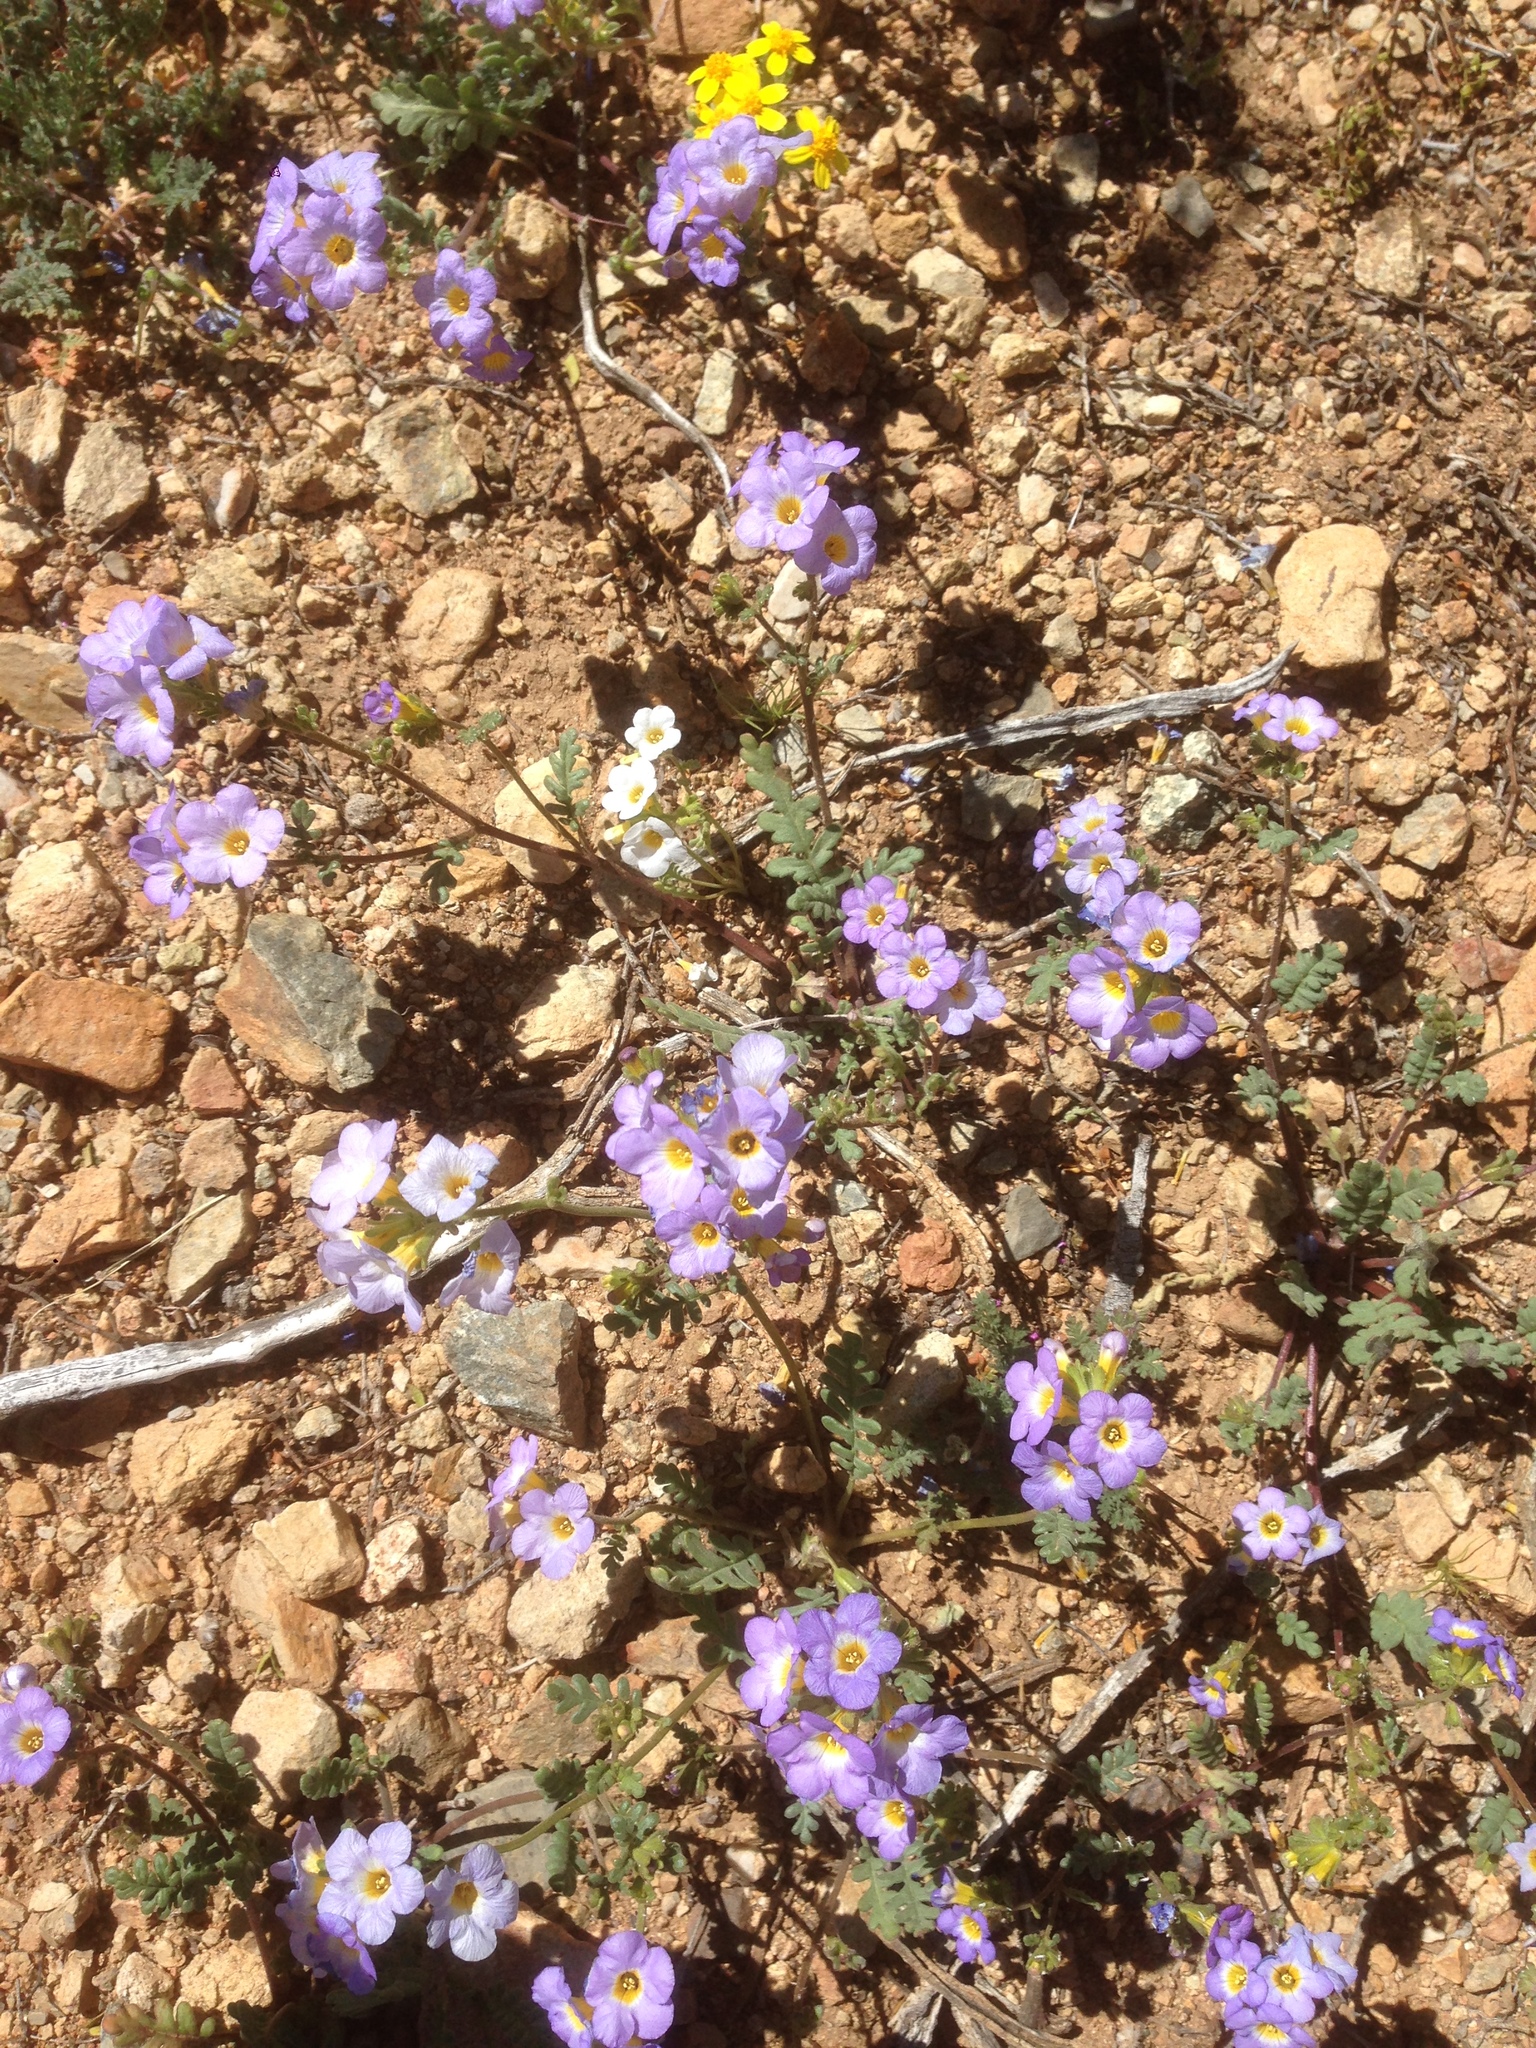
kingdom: Plantae
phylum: Tracheophyta
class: Magnoliopsida
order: Boraginales
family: Hydrophyllaceae
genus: Phacelia
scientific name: Phacelia fremontii
